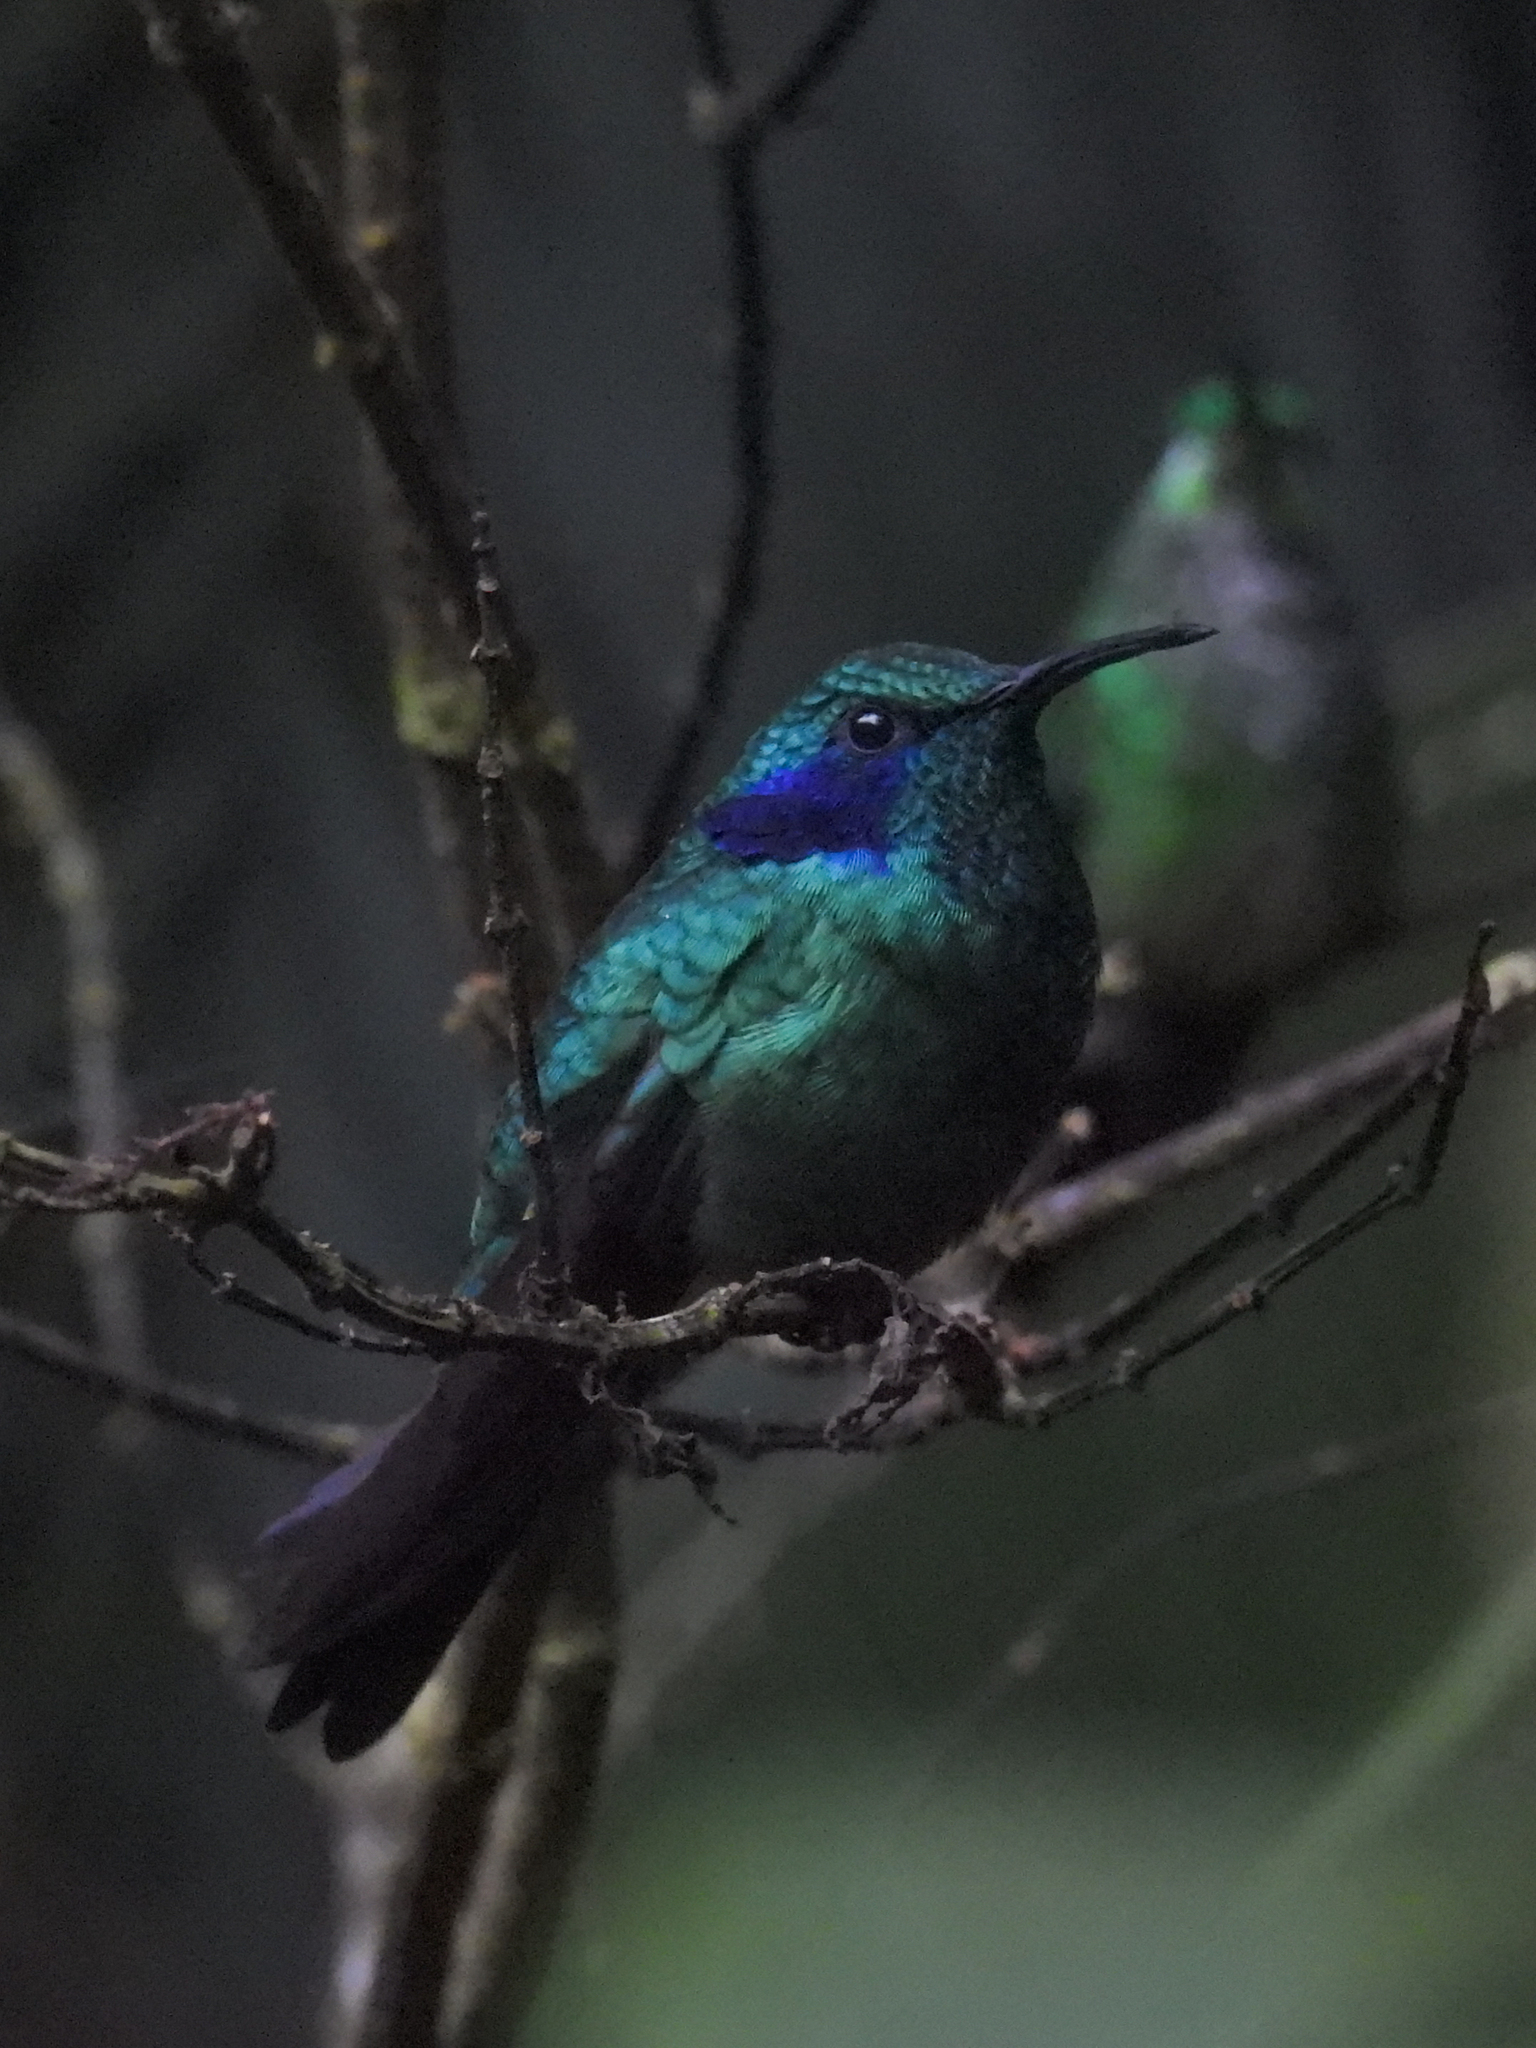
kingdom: Animalia
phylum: Chordata
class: Aves
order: Apodiformes
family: Trochilidae
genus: Colibri
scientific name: Colibri cyanotus
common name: Lesser violetear
